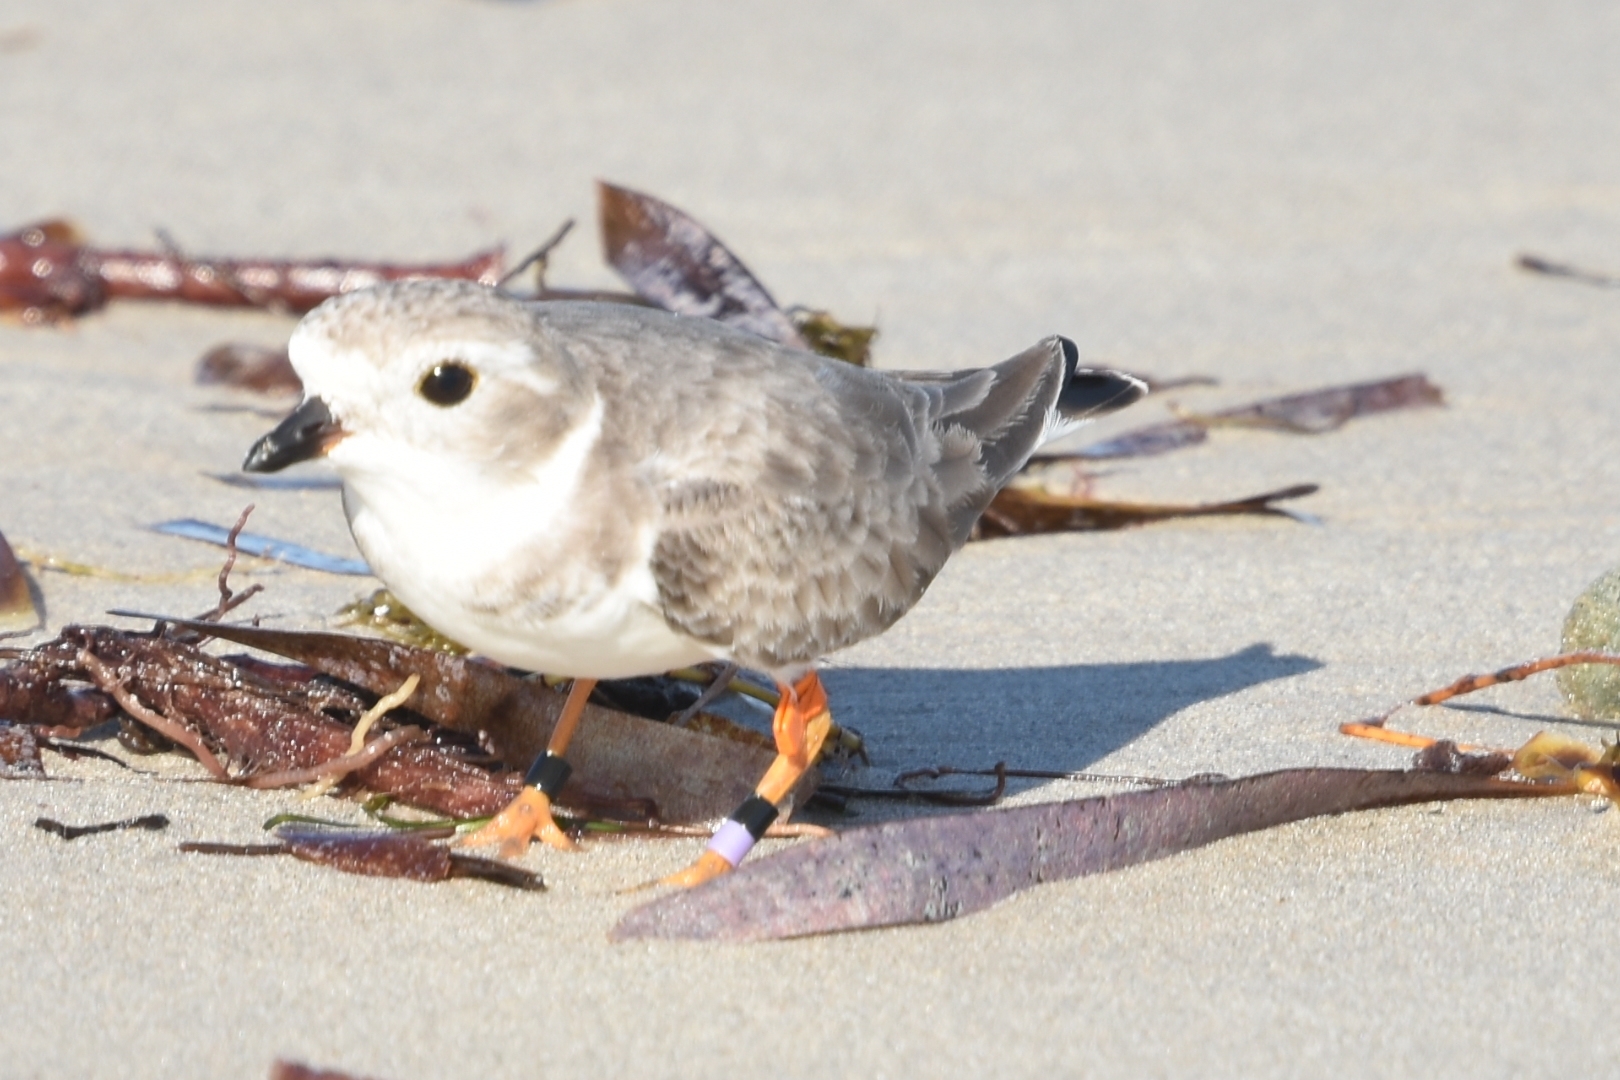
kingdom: Animalia
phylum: Chordata
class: Aves
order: Charadriiformes
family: Charadriidae
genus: Charadrius
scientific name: Charadrius melodus
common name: Piping plover
